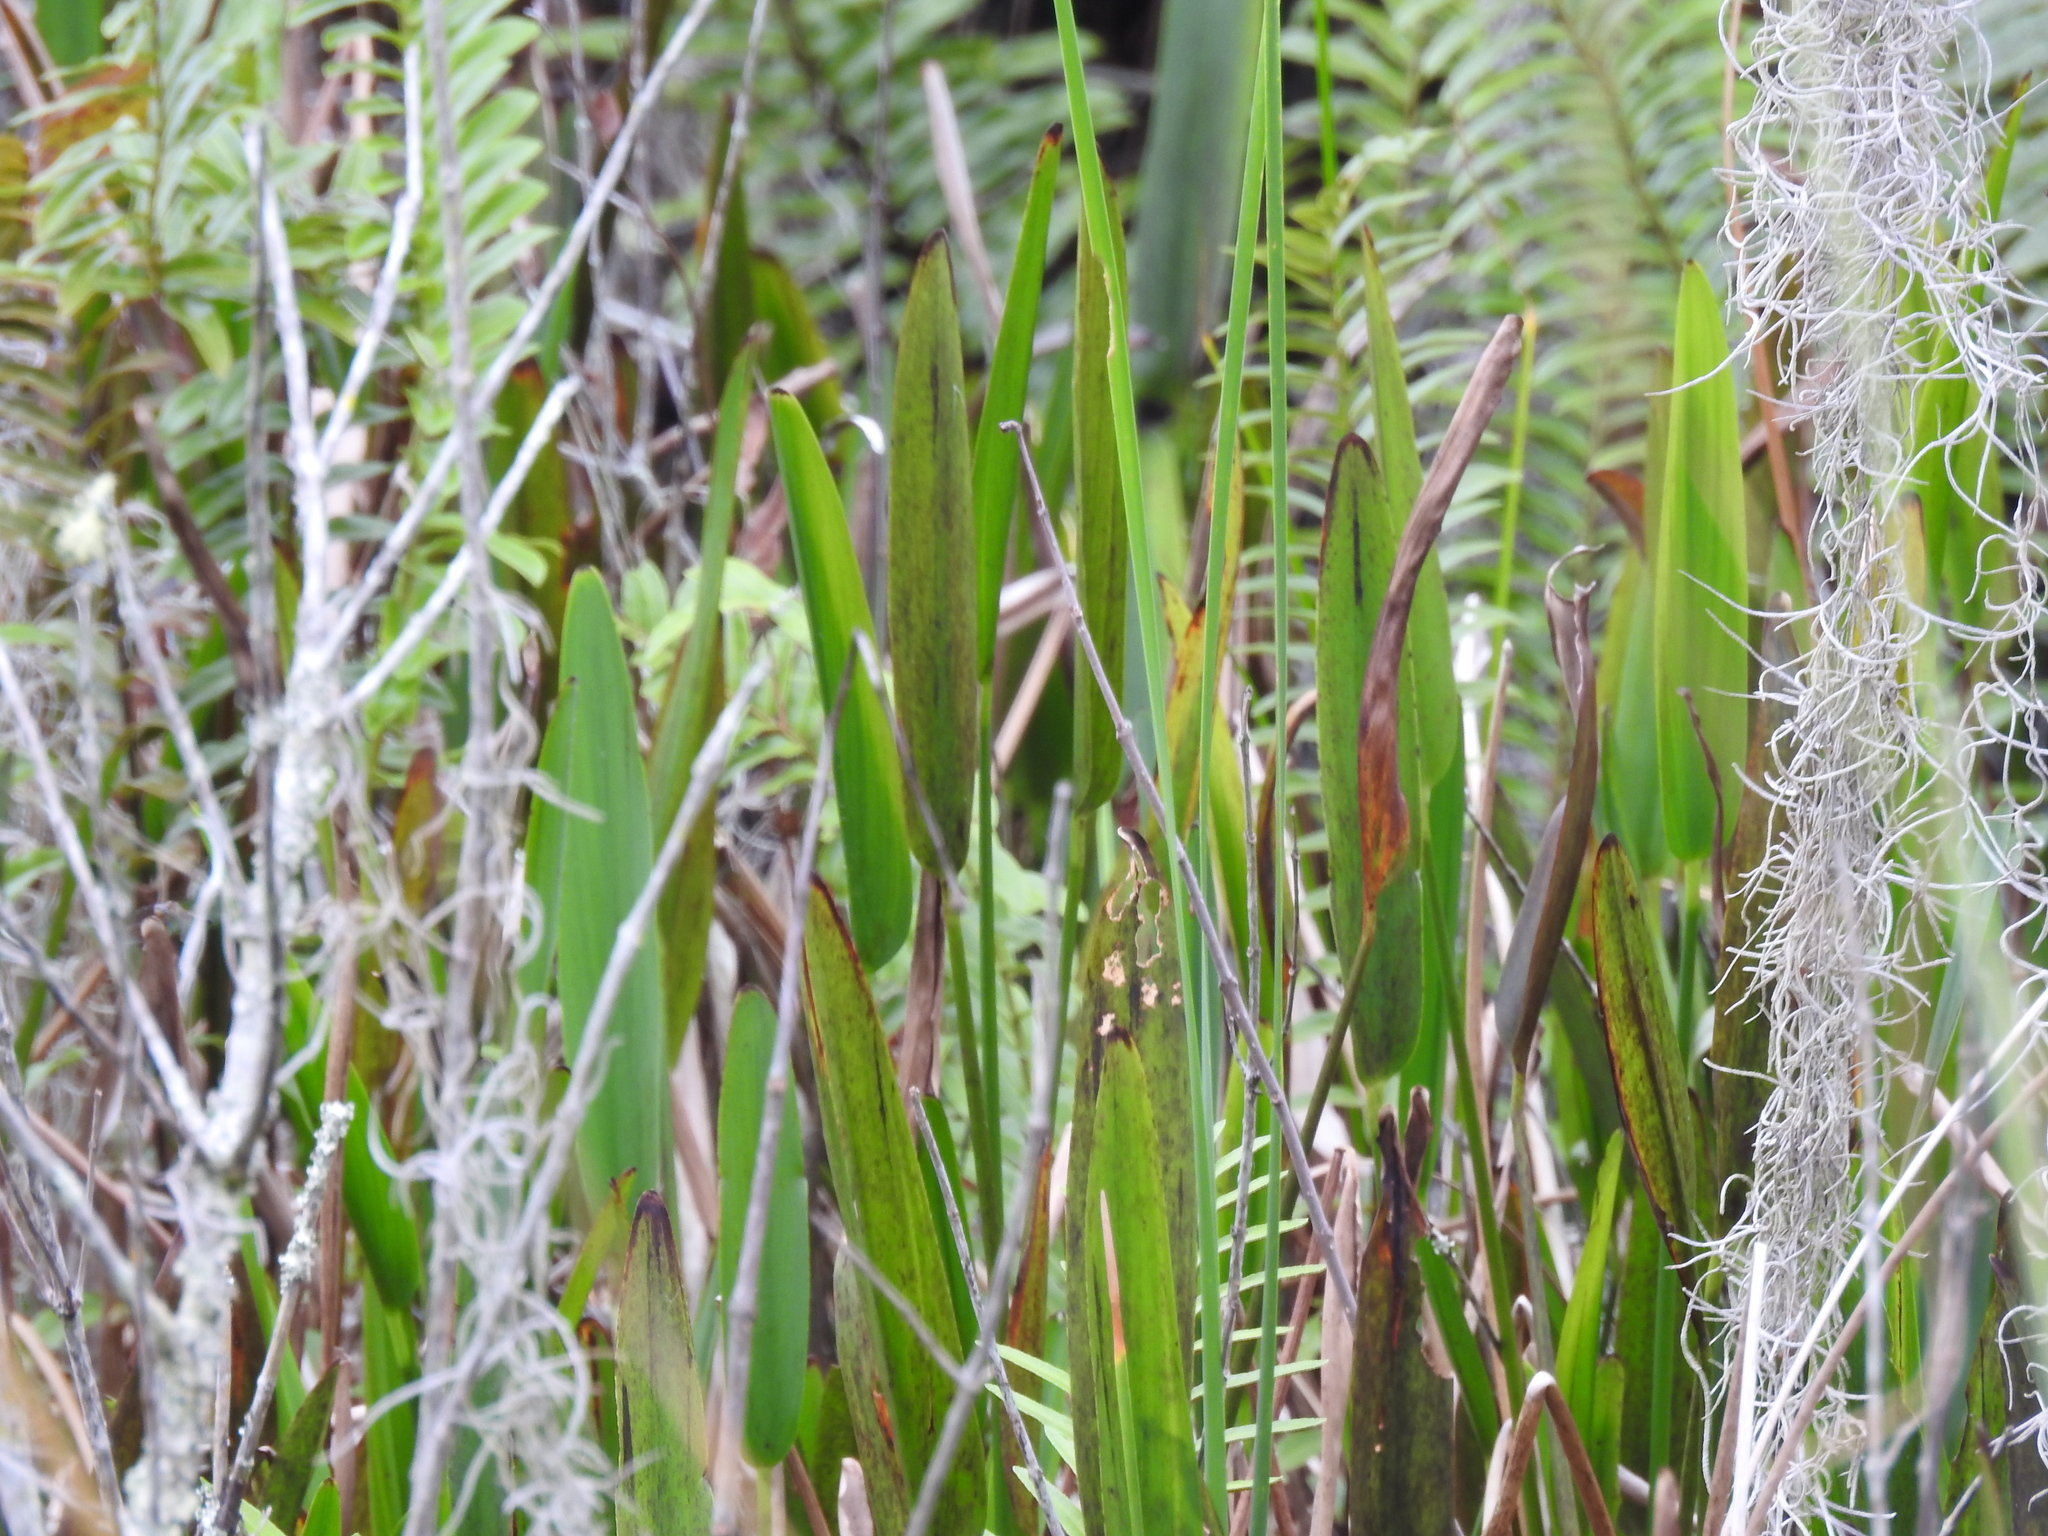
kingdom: Plantae
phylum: Tracheophyta
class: Liliopsida
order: Commelinales
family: Pontederiaceae
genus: Pontederia
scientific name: Pontederia cordata
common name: Pickerelweed
